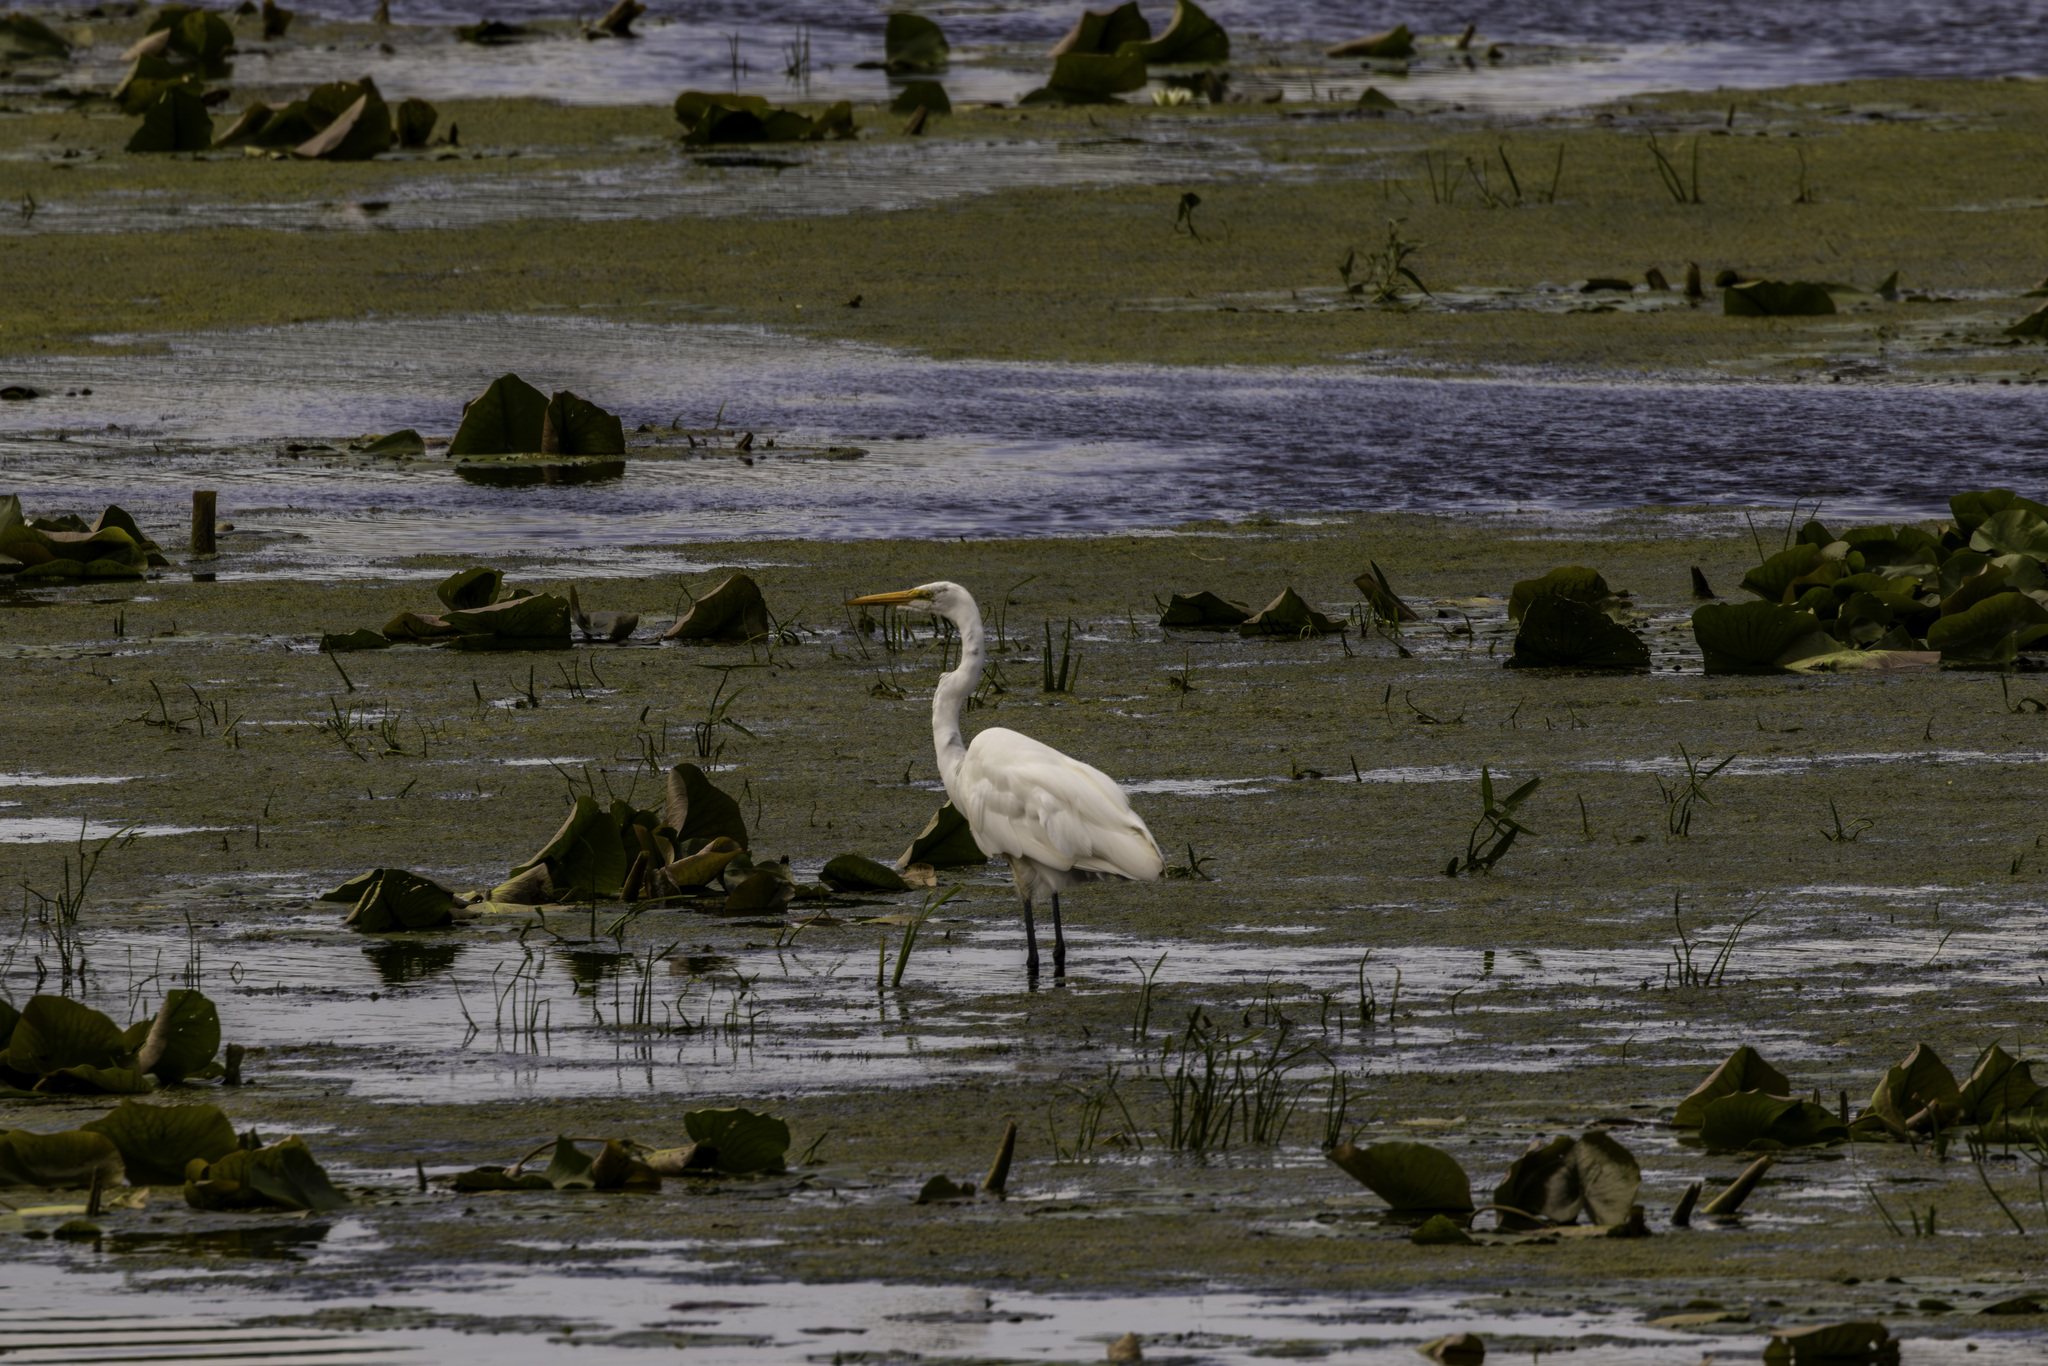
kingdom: Animalia
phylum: Chordata
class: Aves
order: Pelecaniformes
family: Ardeidae
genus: Ardea
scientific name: Ardea alba
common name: Great egret
